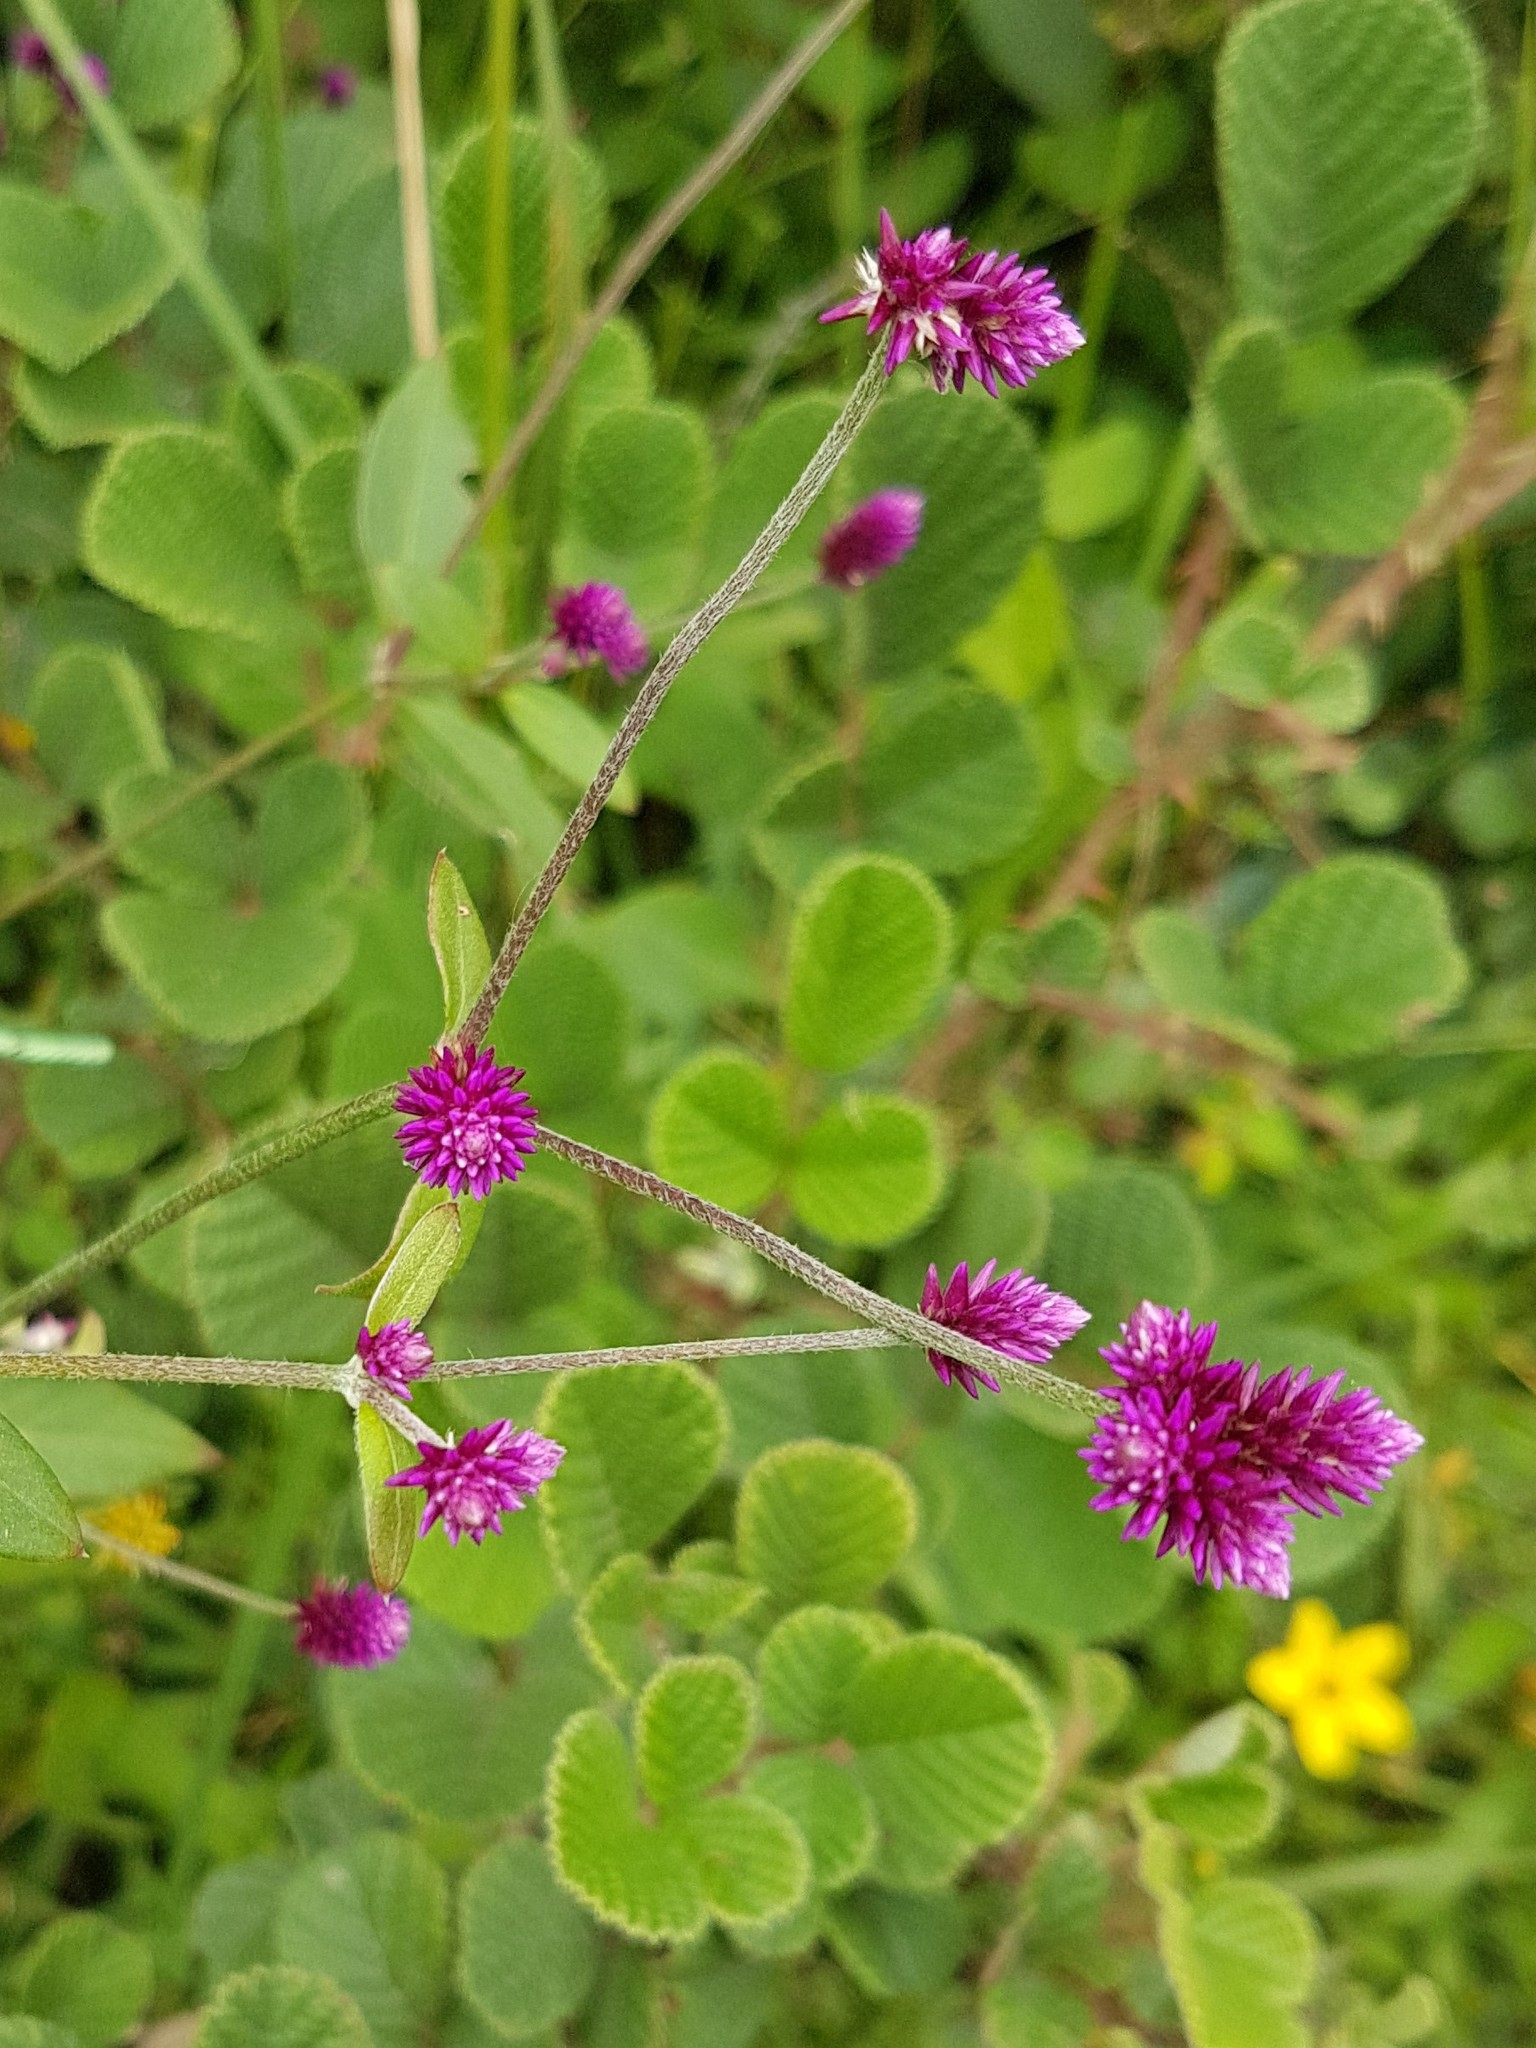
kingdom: Plantae
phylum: Tracheophyta
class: Magnoliopsida
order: Caryophyllales
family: Amaranthaceae
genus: Alternanthera
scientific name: Alternanthera porrigens
